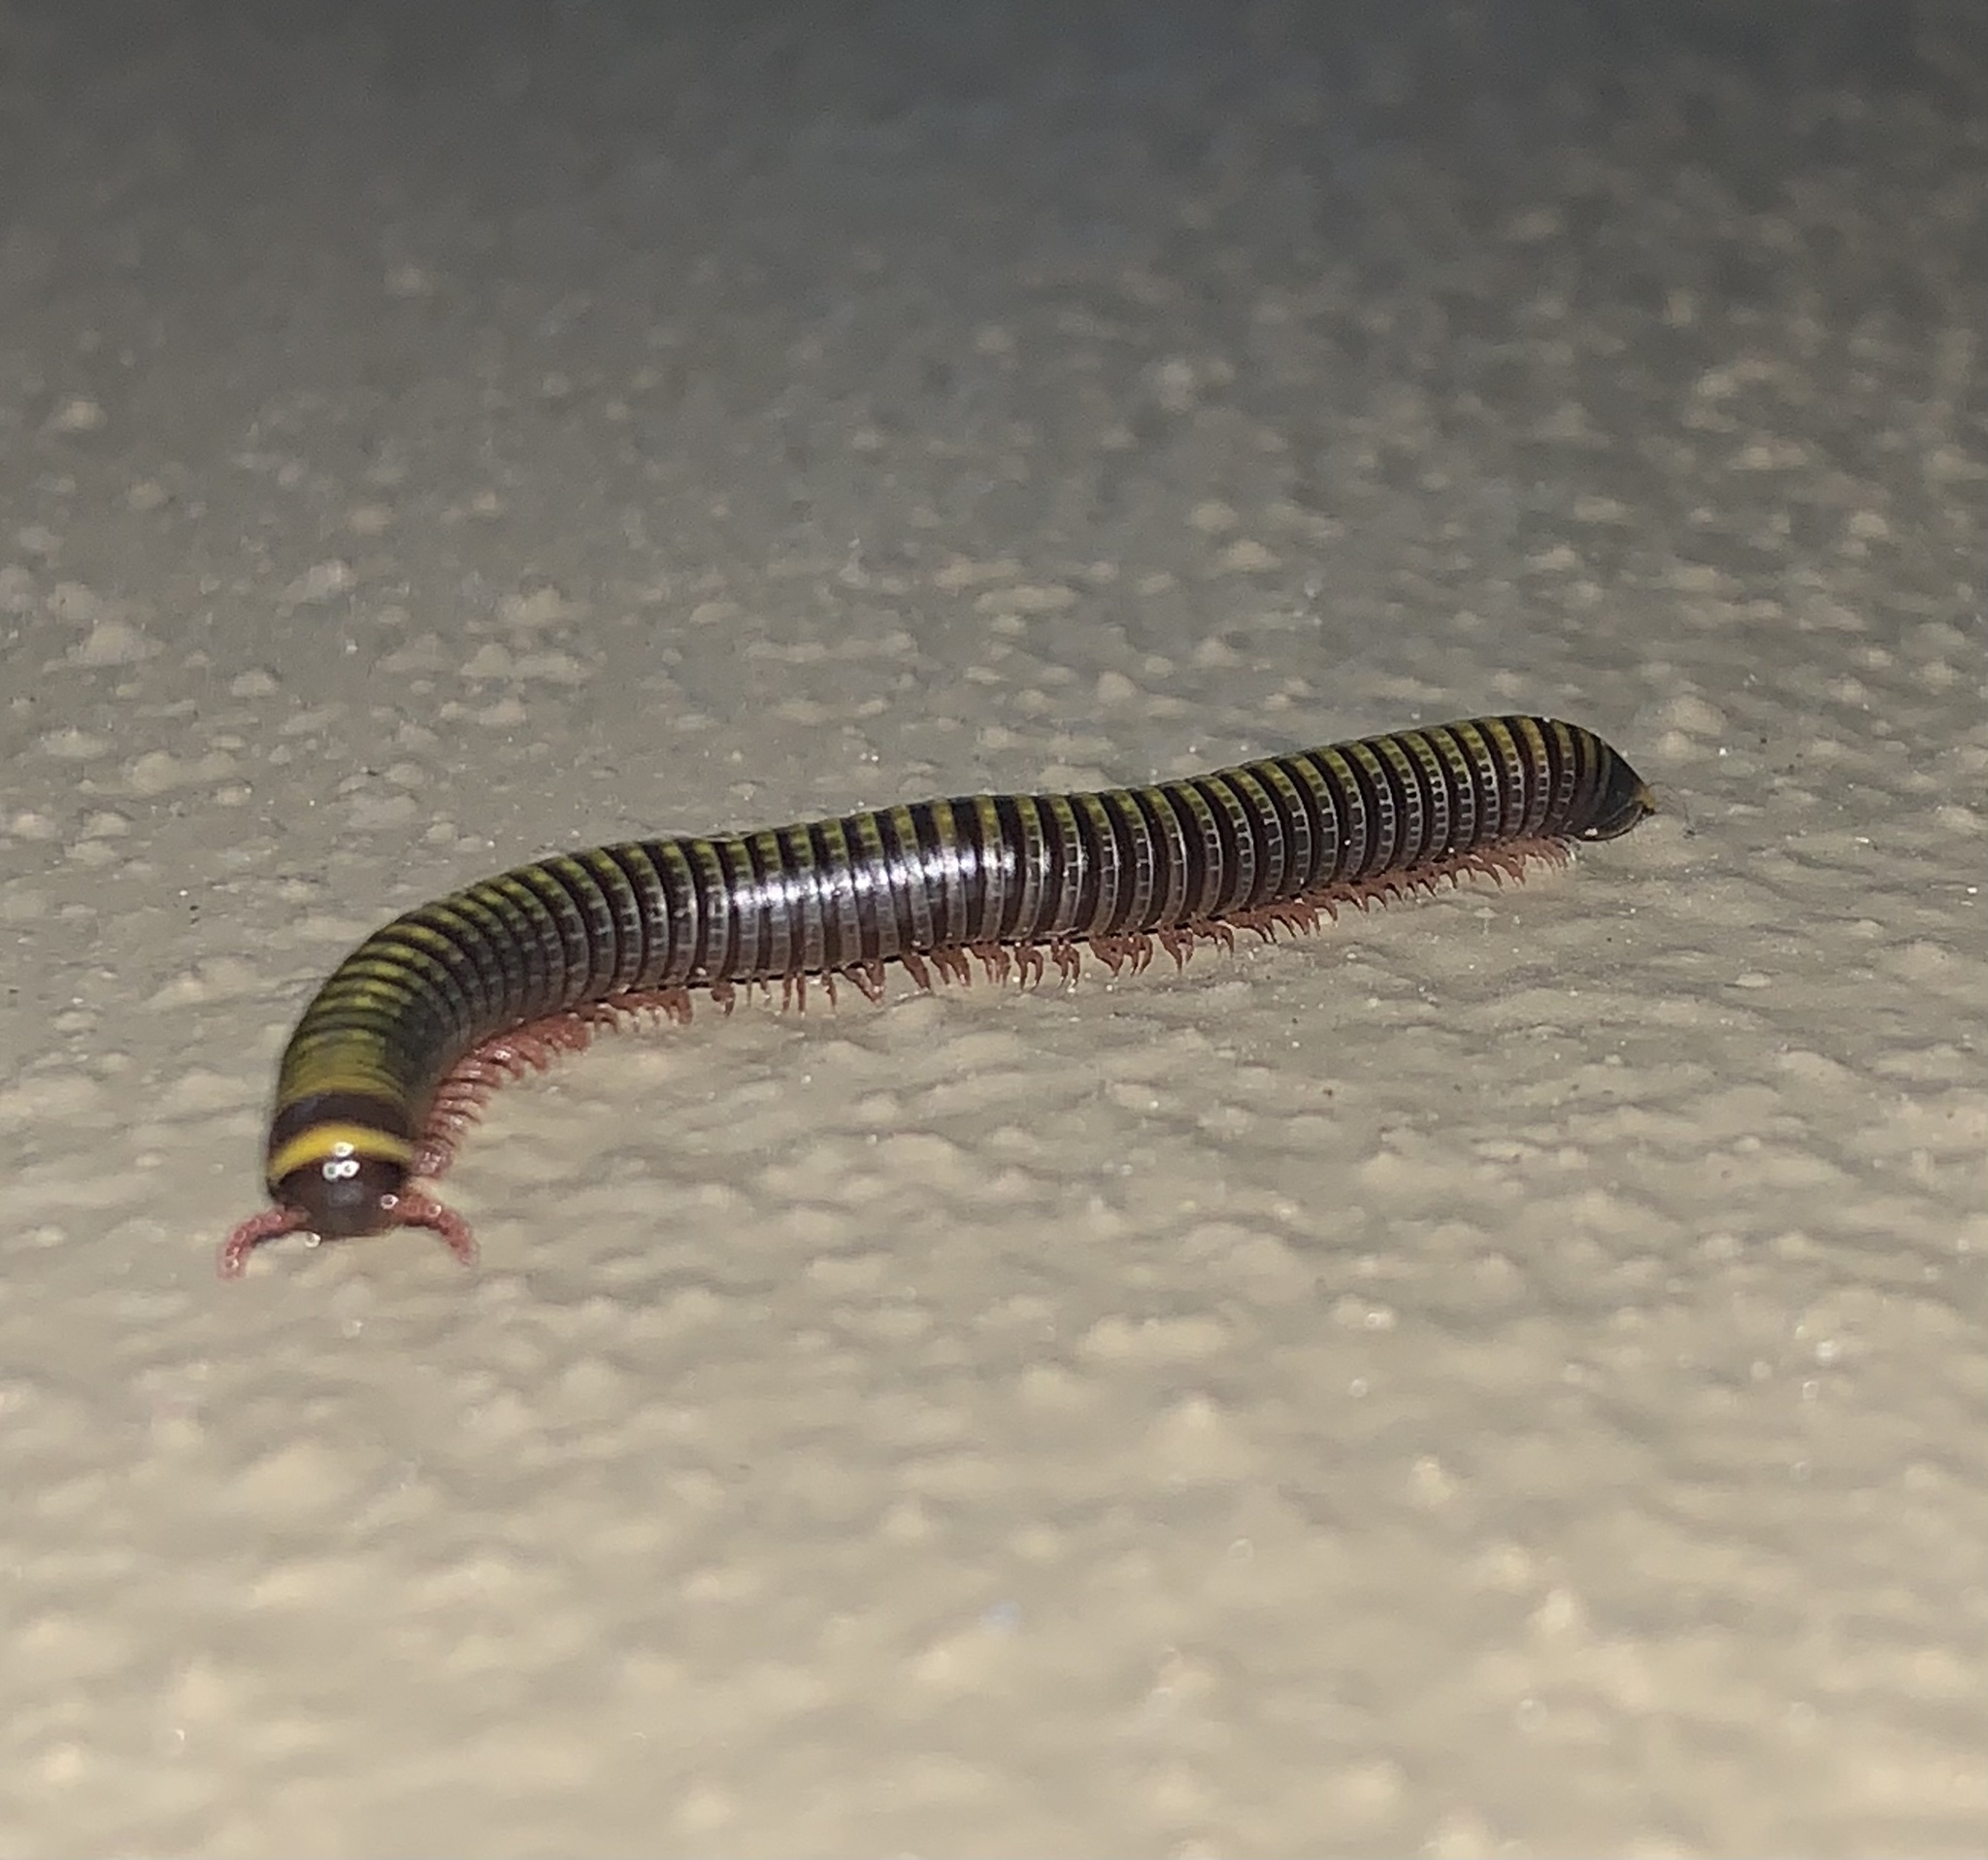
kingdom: Animalia
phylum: Arthropoda
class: Diplopoda
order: Spirobolida
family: Rhinocricidae
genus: Anadenobolus
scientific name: Anadenobolus monilicornis
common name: Caribbean millipede
